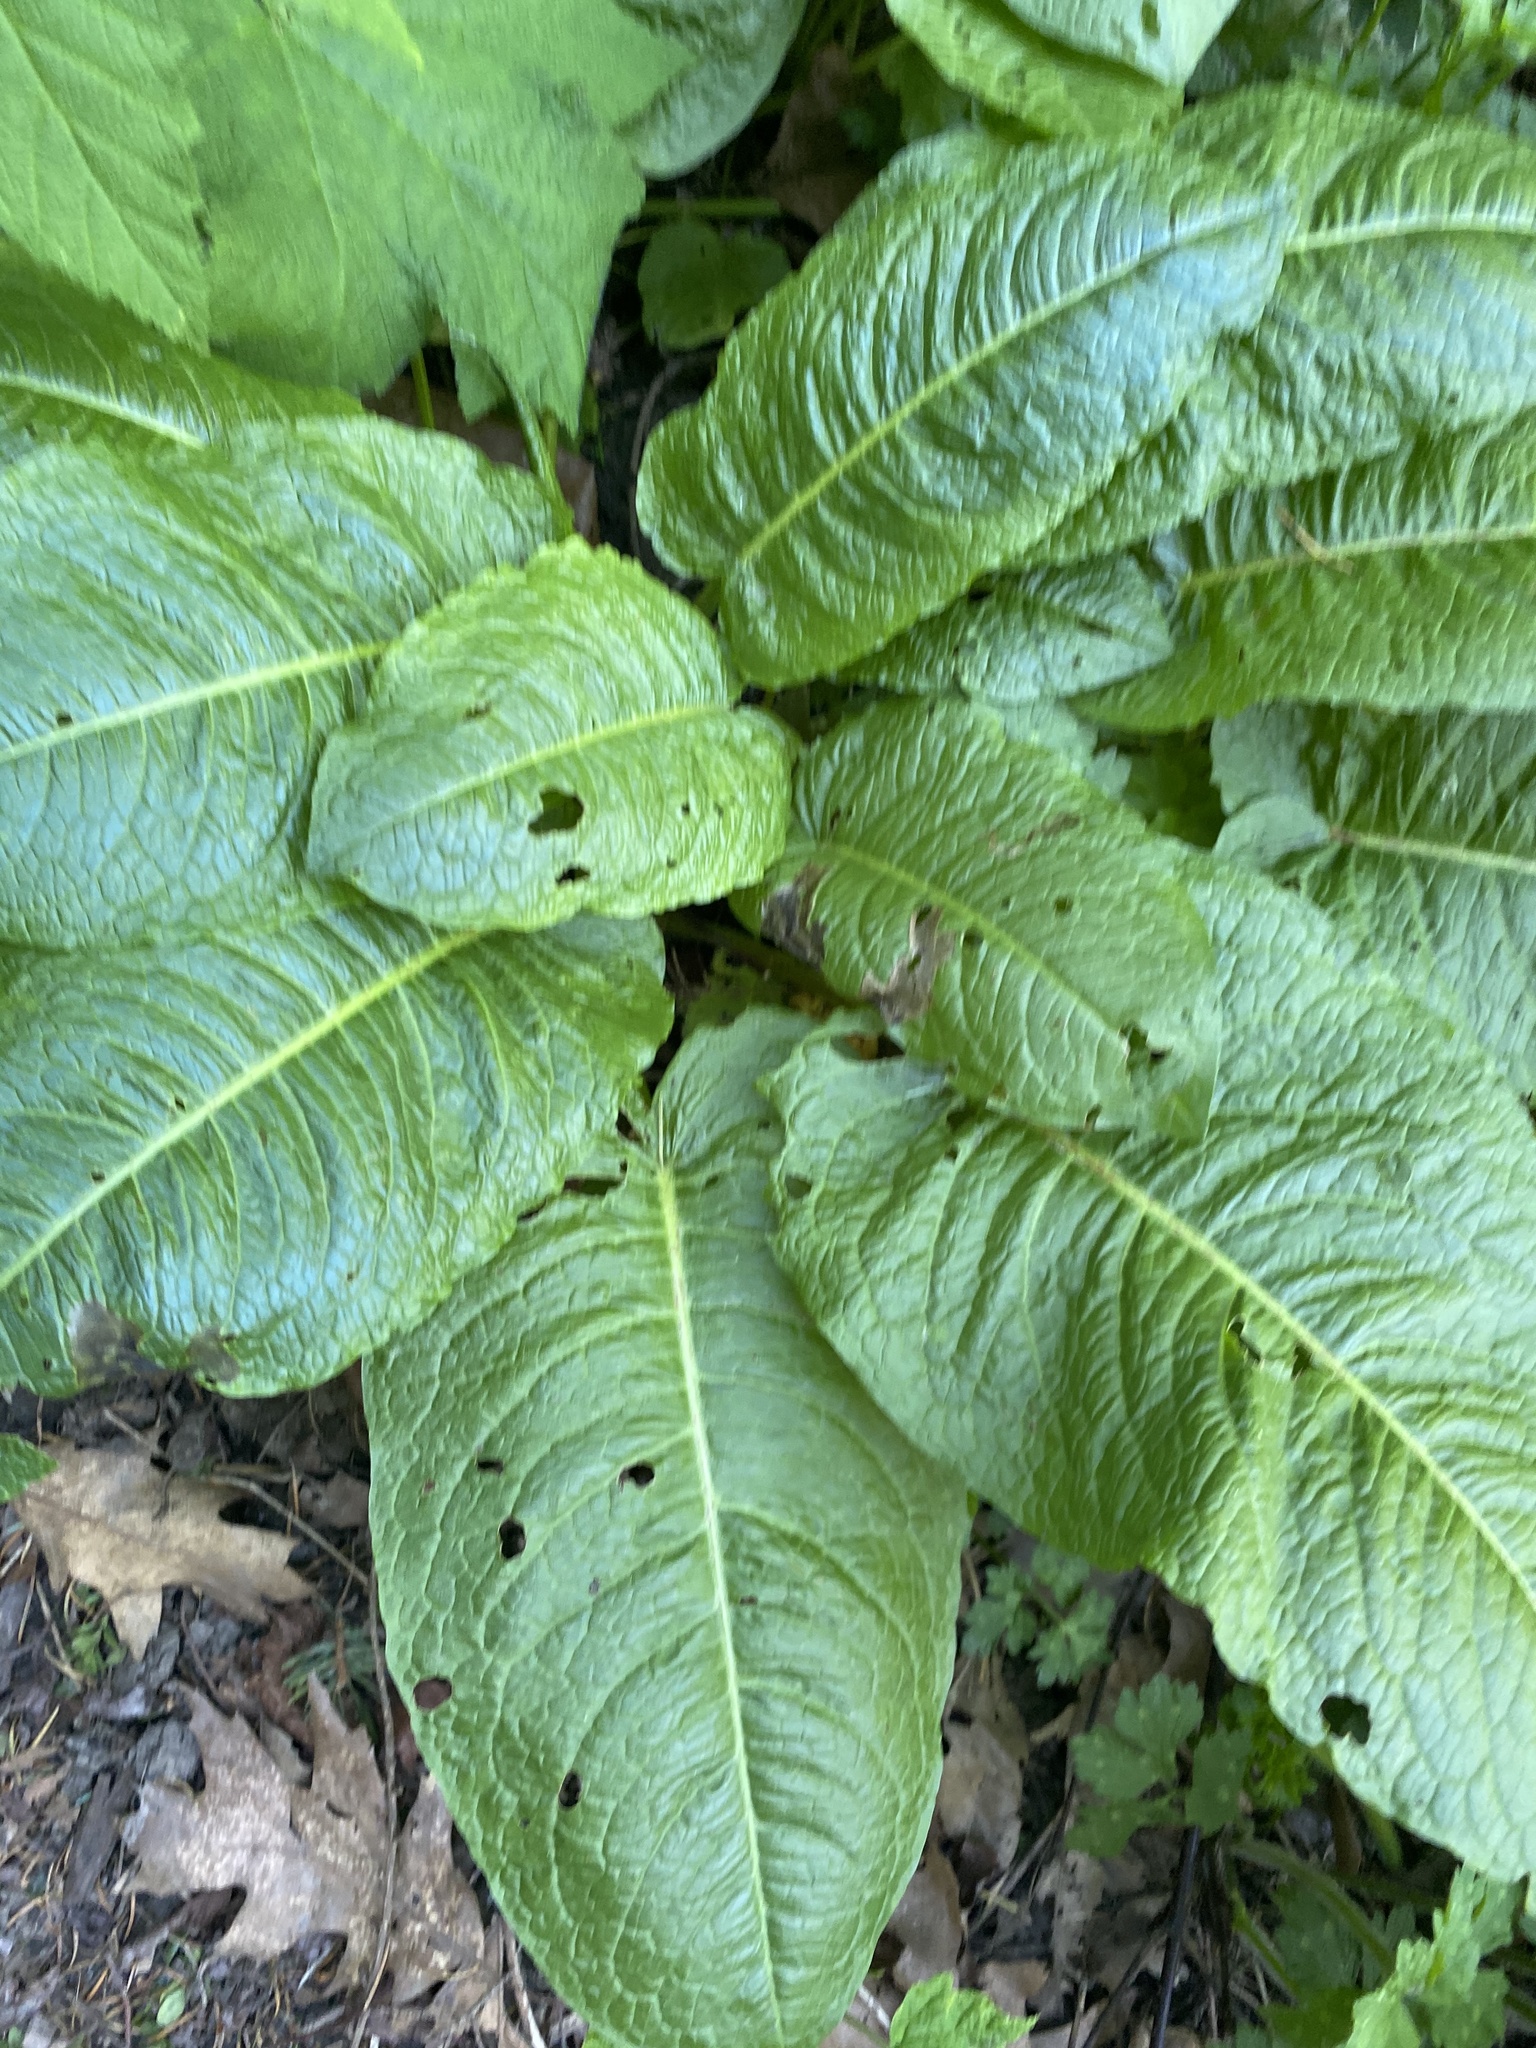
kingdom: Plantae
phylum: Tracheophyta
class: Magnoliopsida
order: Caryophyllales
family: Polygonaceae
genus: Rumex
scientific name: Rumex obtusifolius
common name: Bitter dock
